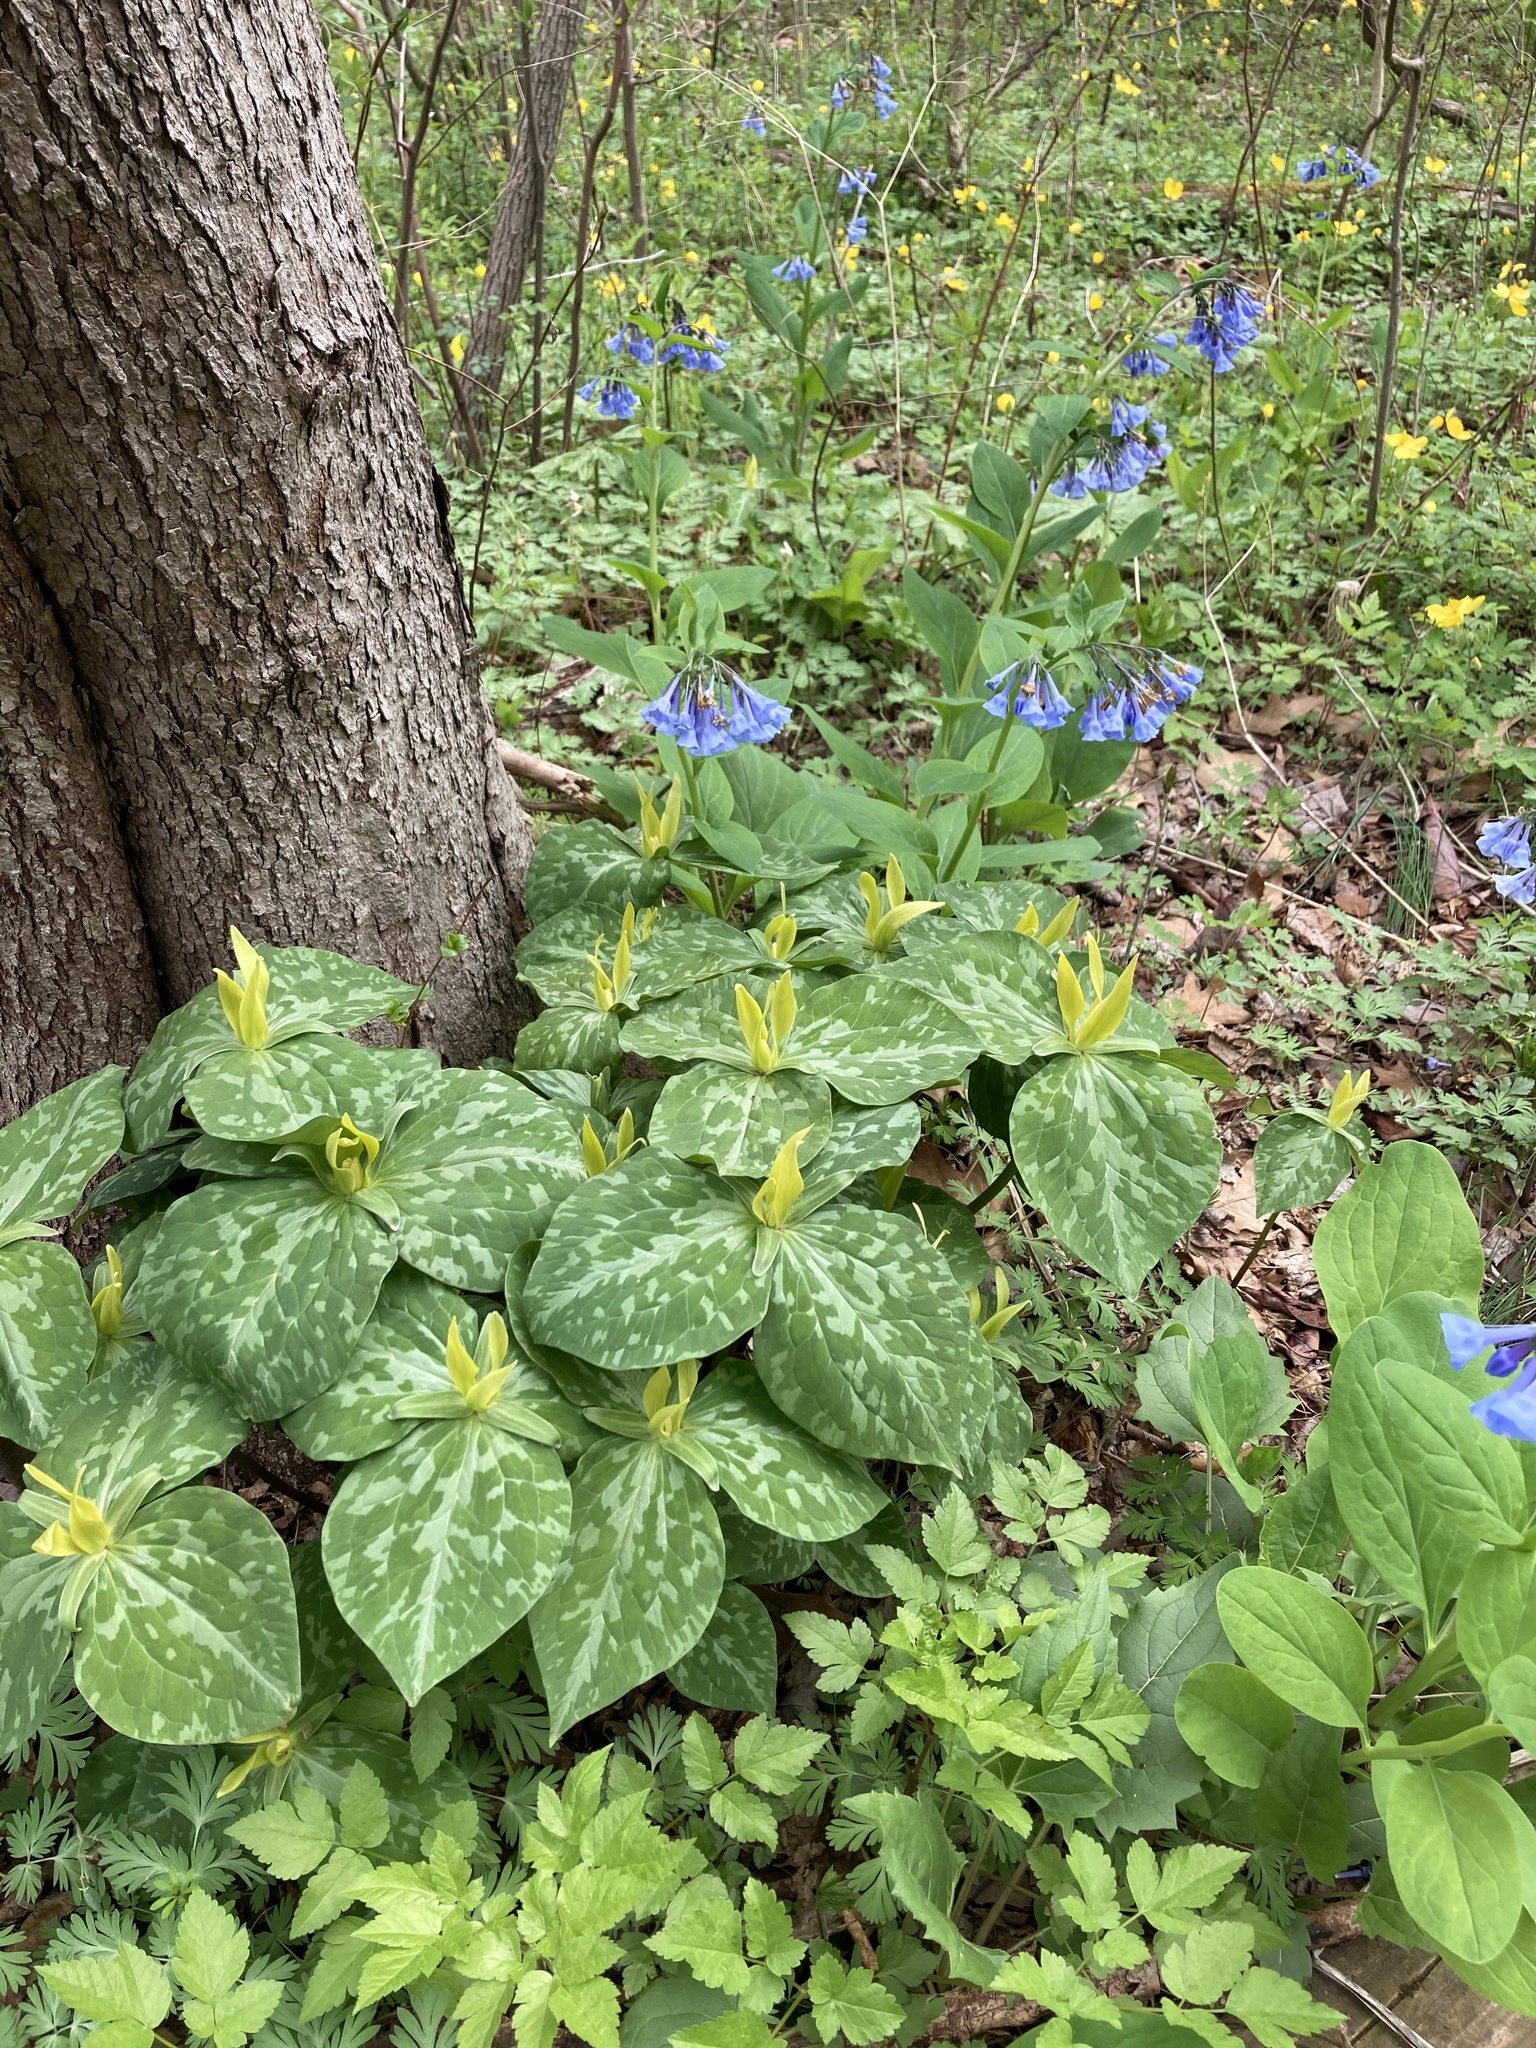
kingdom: Plantae
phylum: Tracheophyta
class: Liliopsida
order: Liliales
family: Melanthiaceae
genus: Trillium
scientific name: Trillium luteum
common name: Wax trillium
